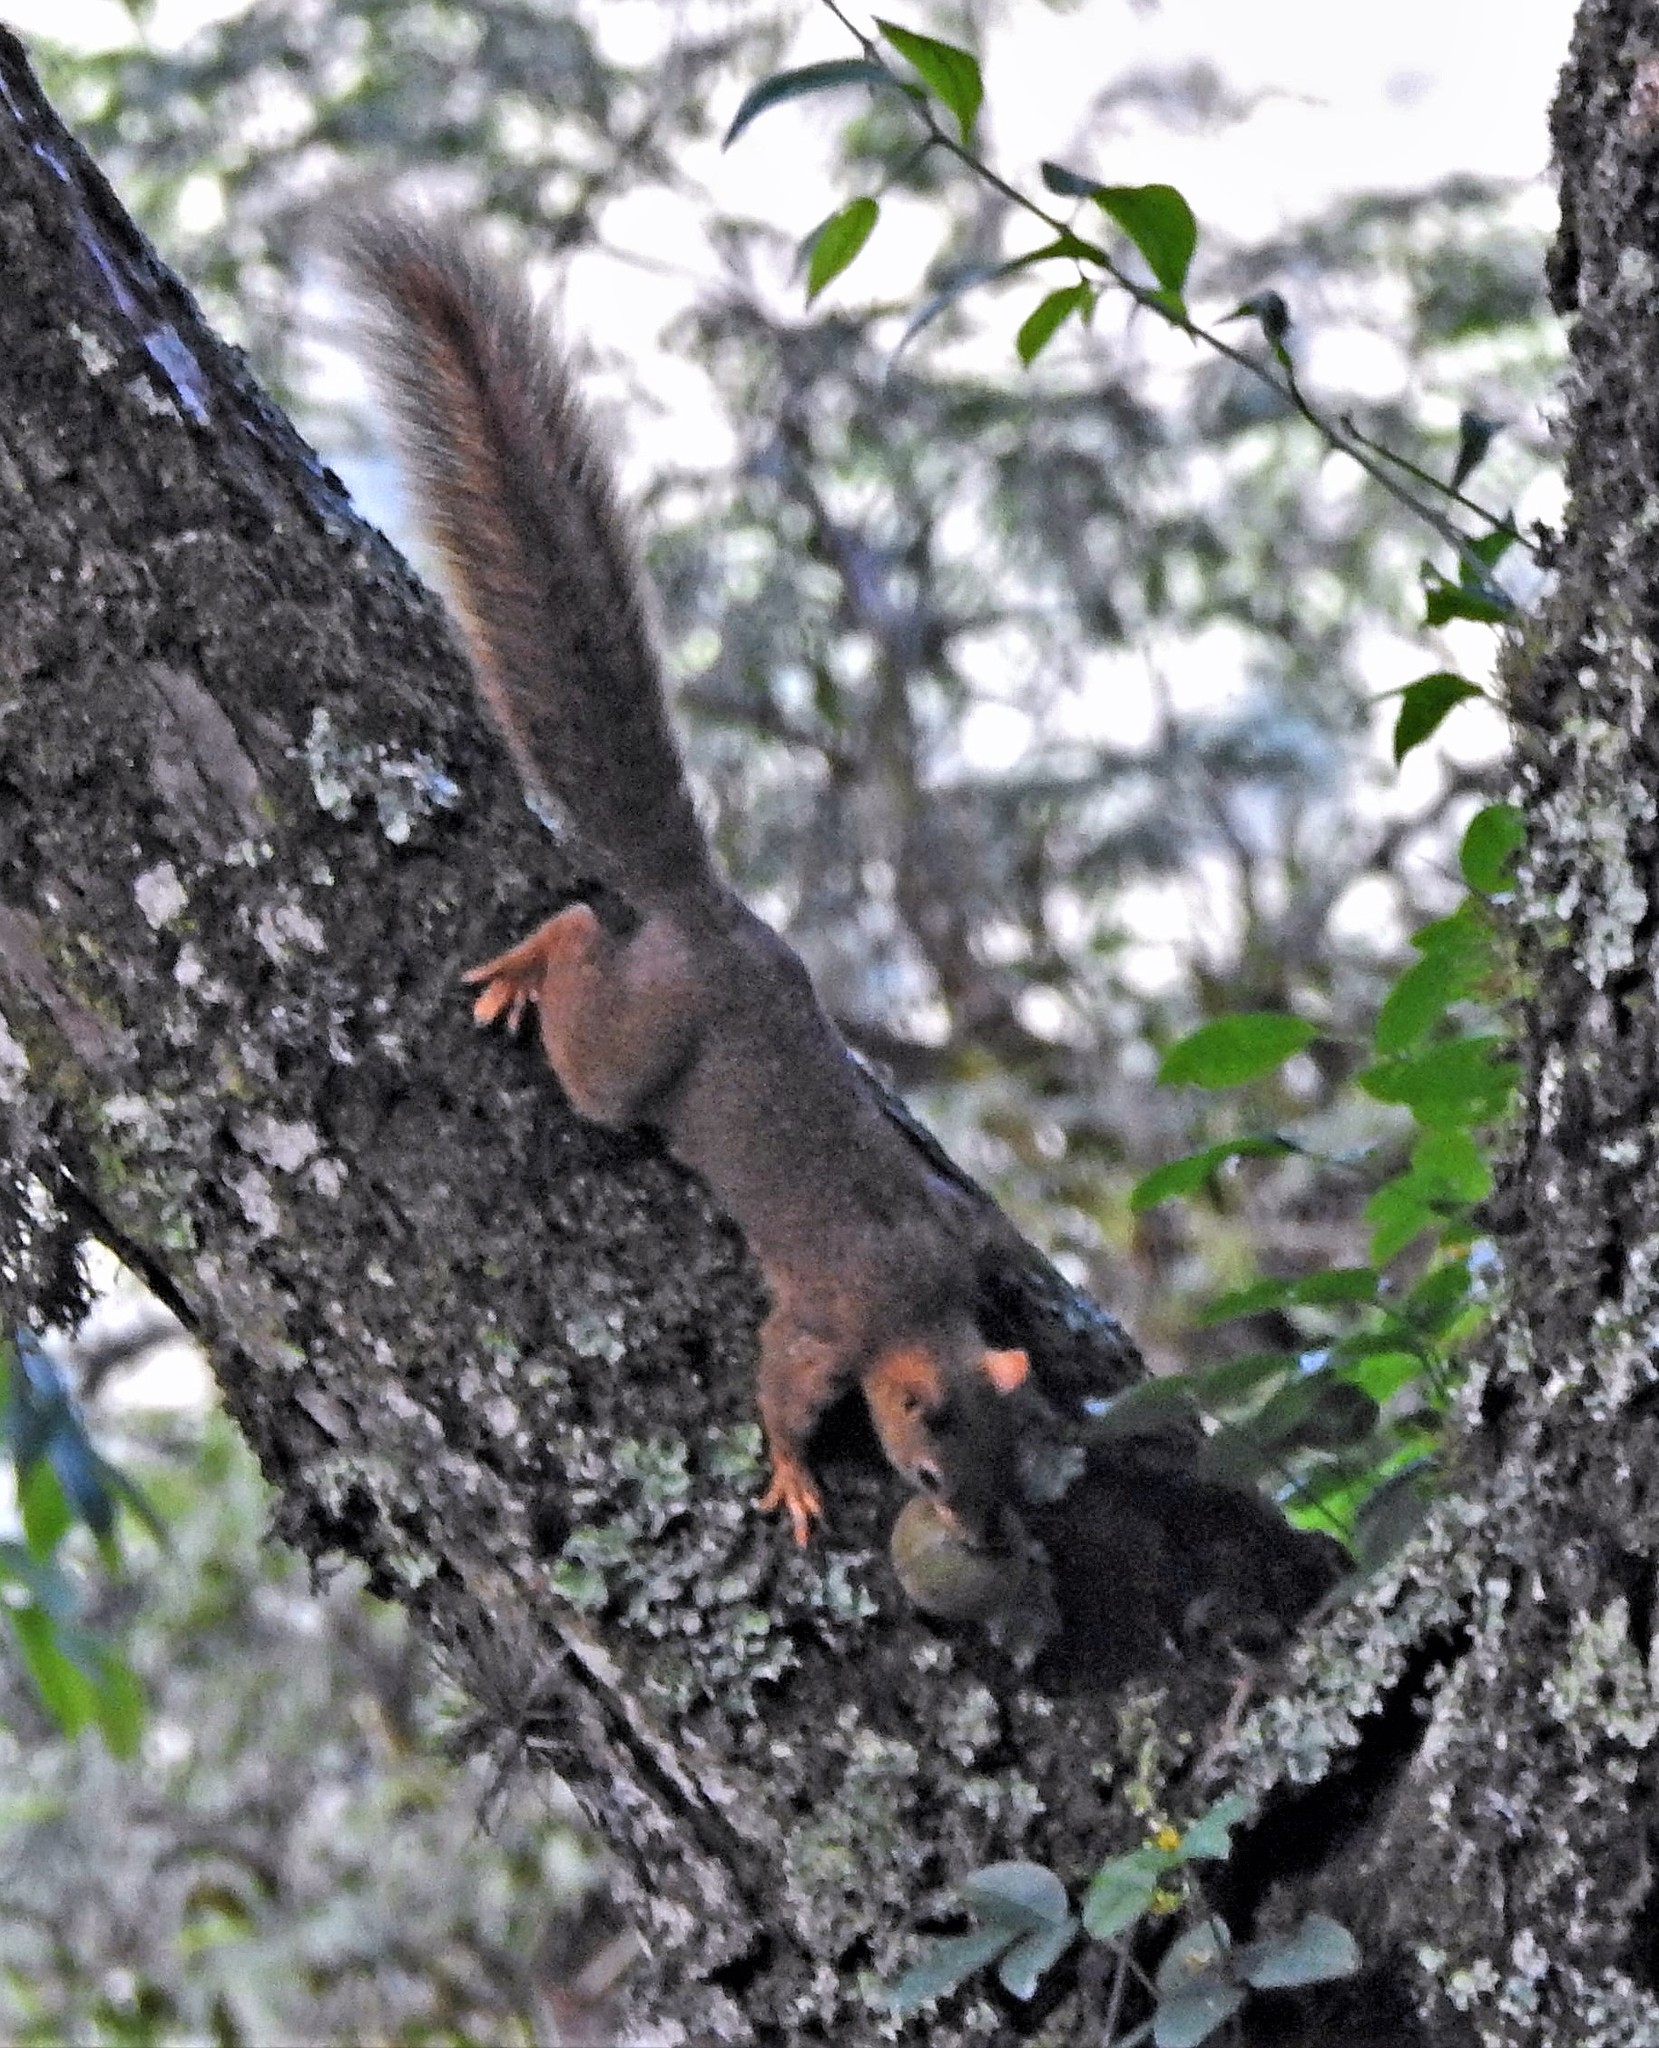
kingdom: Animalia
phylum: Chordata
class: Mammalia
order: Rodentia
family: Sciuridae
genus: Sciurus
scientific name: Sciurus ignitus
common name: Bolivian squirrel
